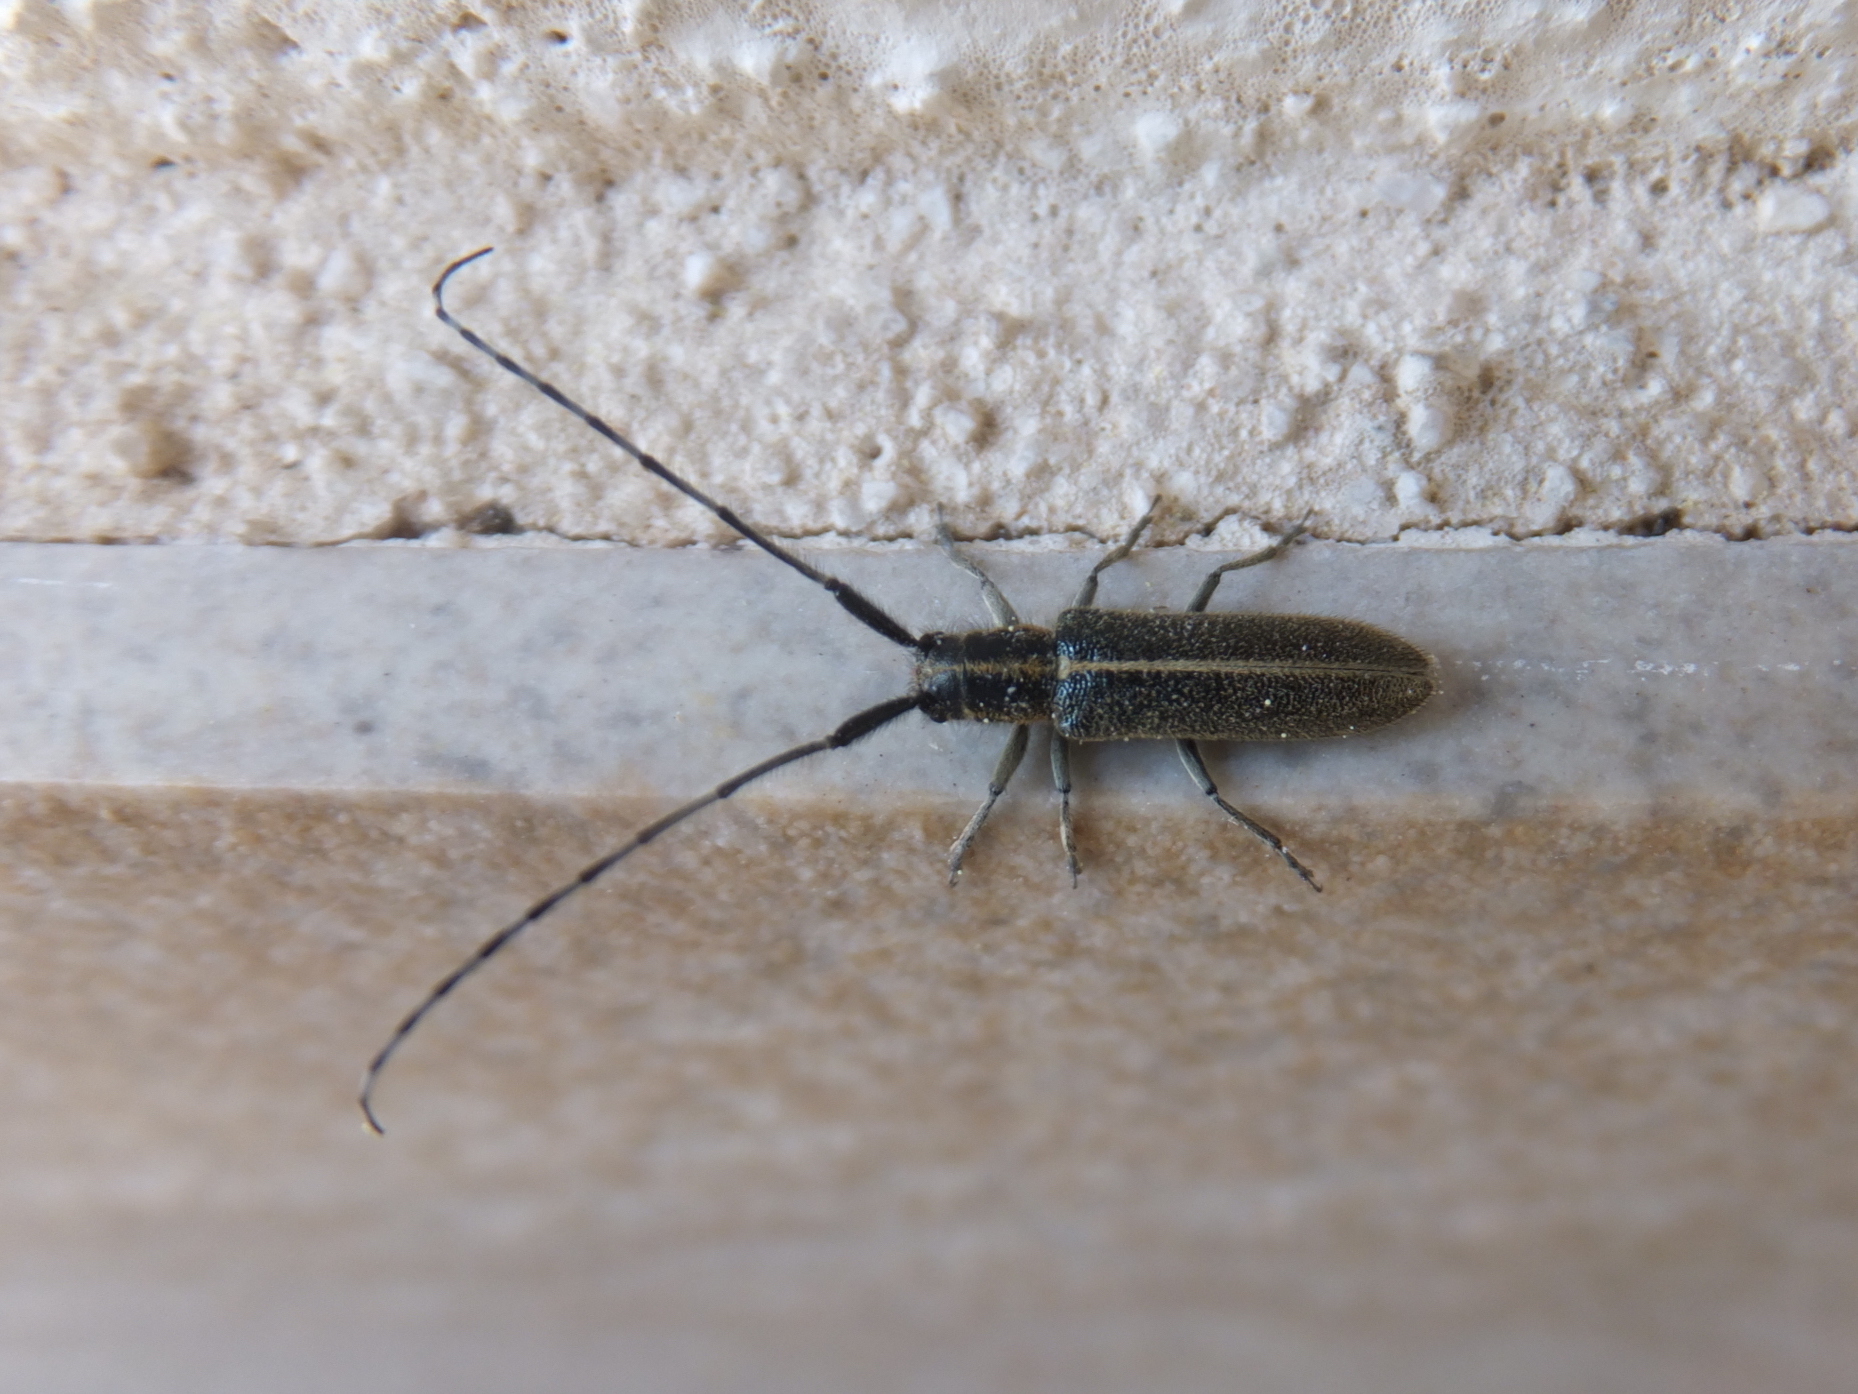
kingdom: Animalia
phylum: Arthropoda
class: Insecta
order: Coleoptera
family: Cerambycidae
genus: Agapanthia
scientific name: Agapanthia cardui
